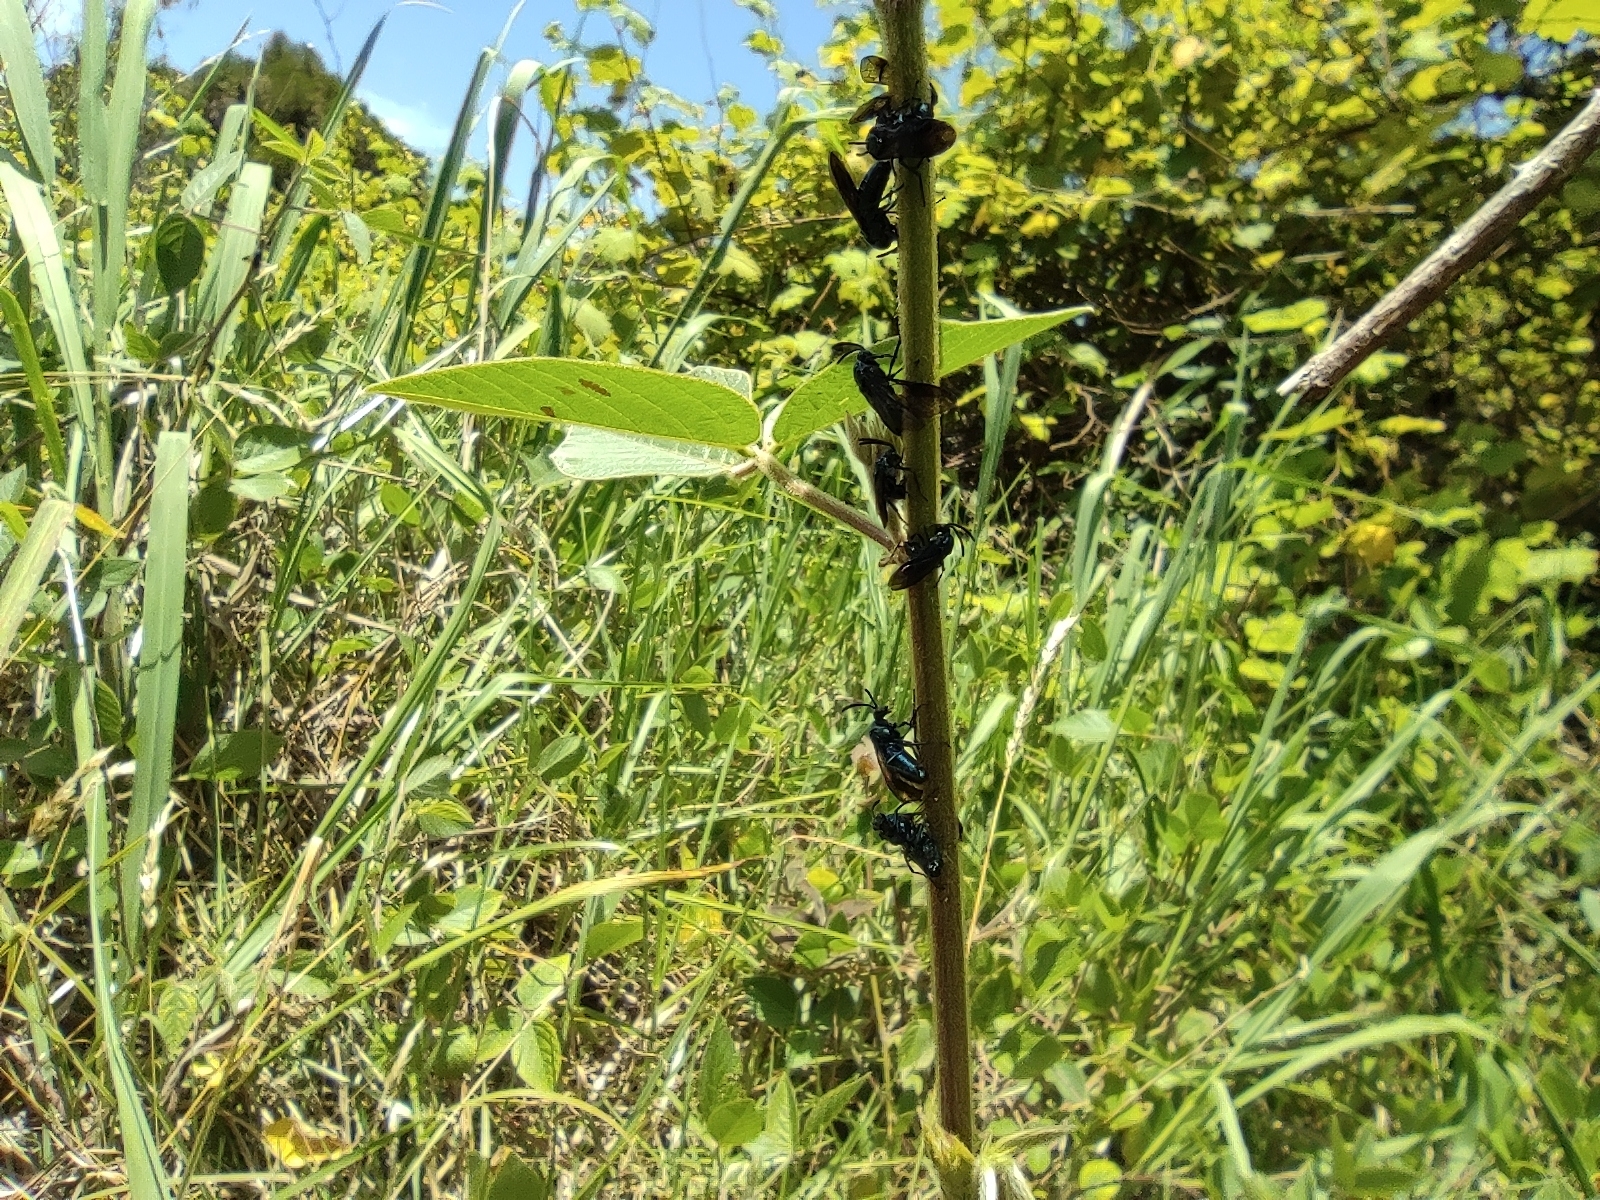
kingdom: Animalia
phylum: Arthropoda
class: Insecta
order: Hymenoptera
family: Argidae
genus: Cibdela
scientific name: Cibdela janthina
